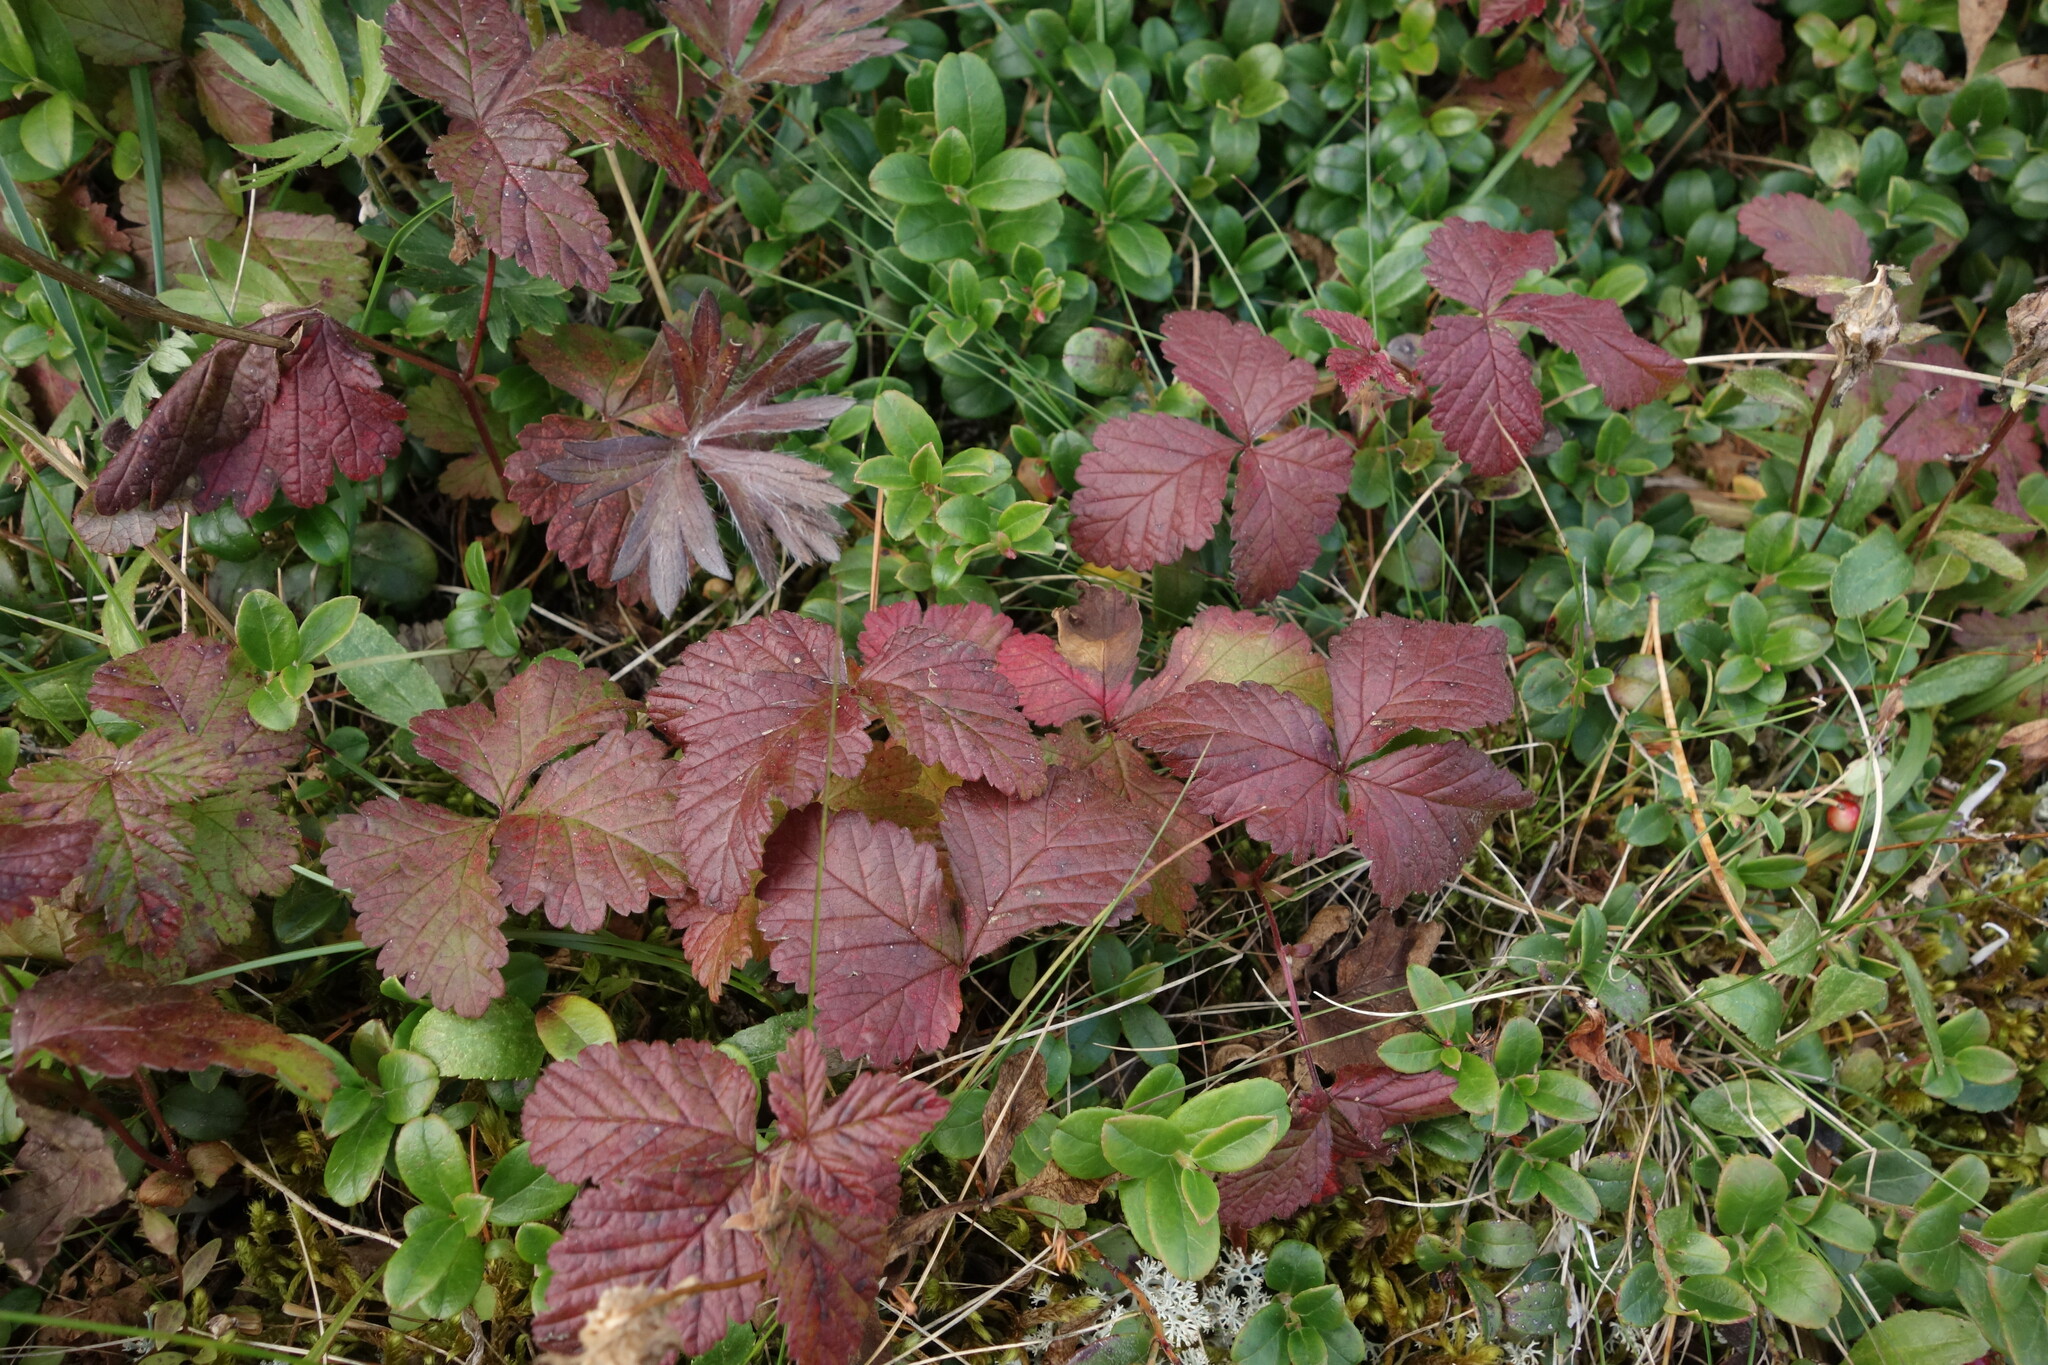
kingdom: Plantae
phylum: Tracheophyta
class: Magnoliopsida
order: Rosales
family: Rosaceae
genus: Rubus
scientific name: Rubus arcticus
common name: Arctic bramble
